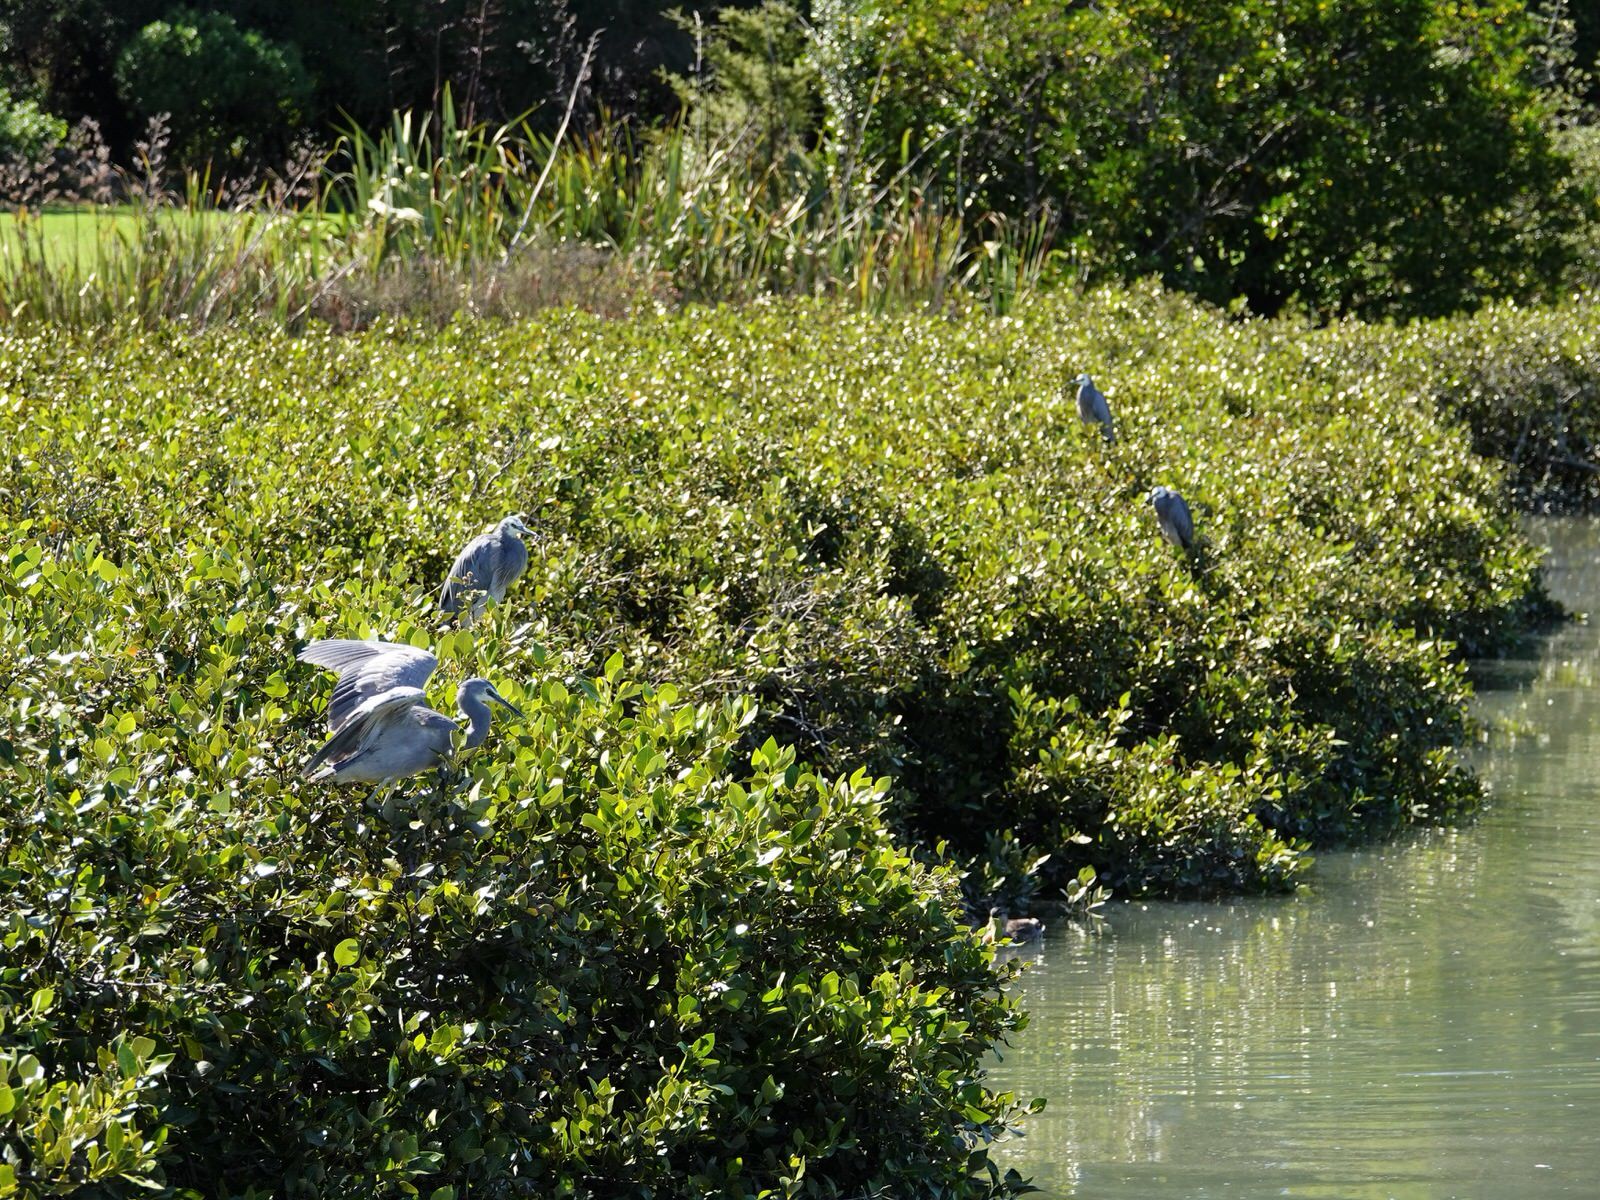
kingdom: Animalia
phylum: Chordata
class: Aves
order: Pelecaniformes
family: Ardeidae
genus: Egretta
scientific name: Egretta novaehollandiae
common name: White-faced heron
